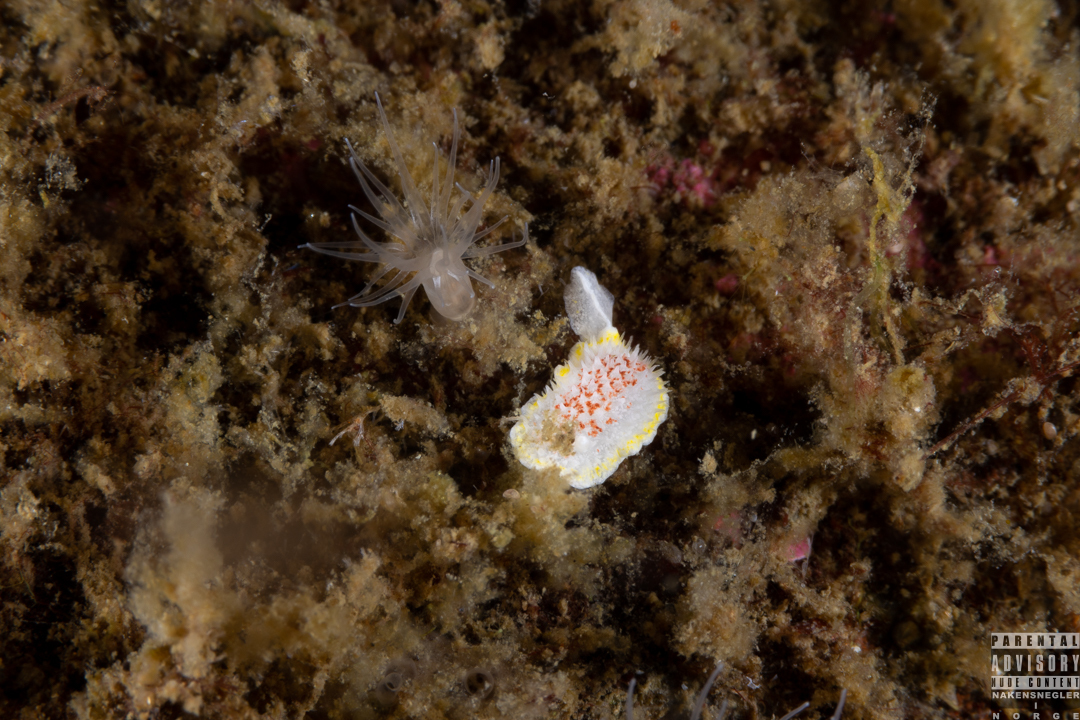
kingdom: Animalia
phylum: Mollusca
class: Gastropoda
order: Nudibranchia
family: Calycidorididae
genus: Diaphorodoris
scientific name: Diaphorodoris luteocincta
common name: Fried egg nudibranch
